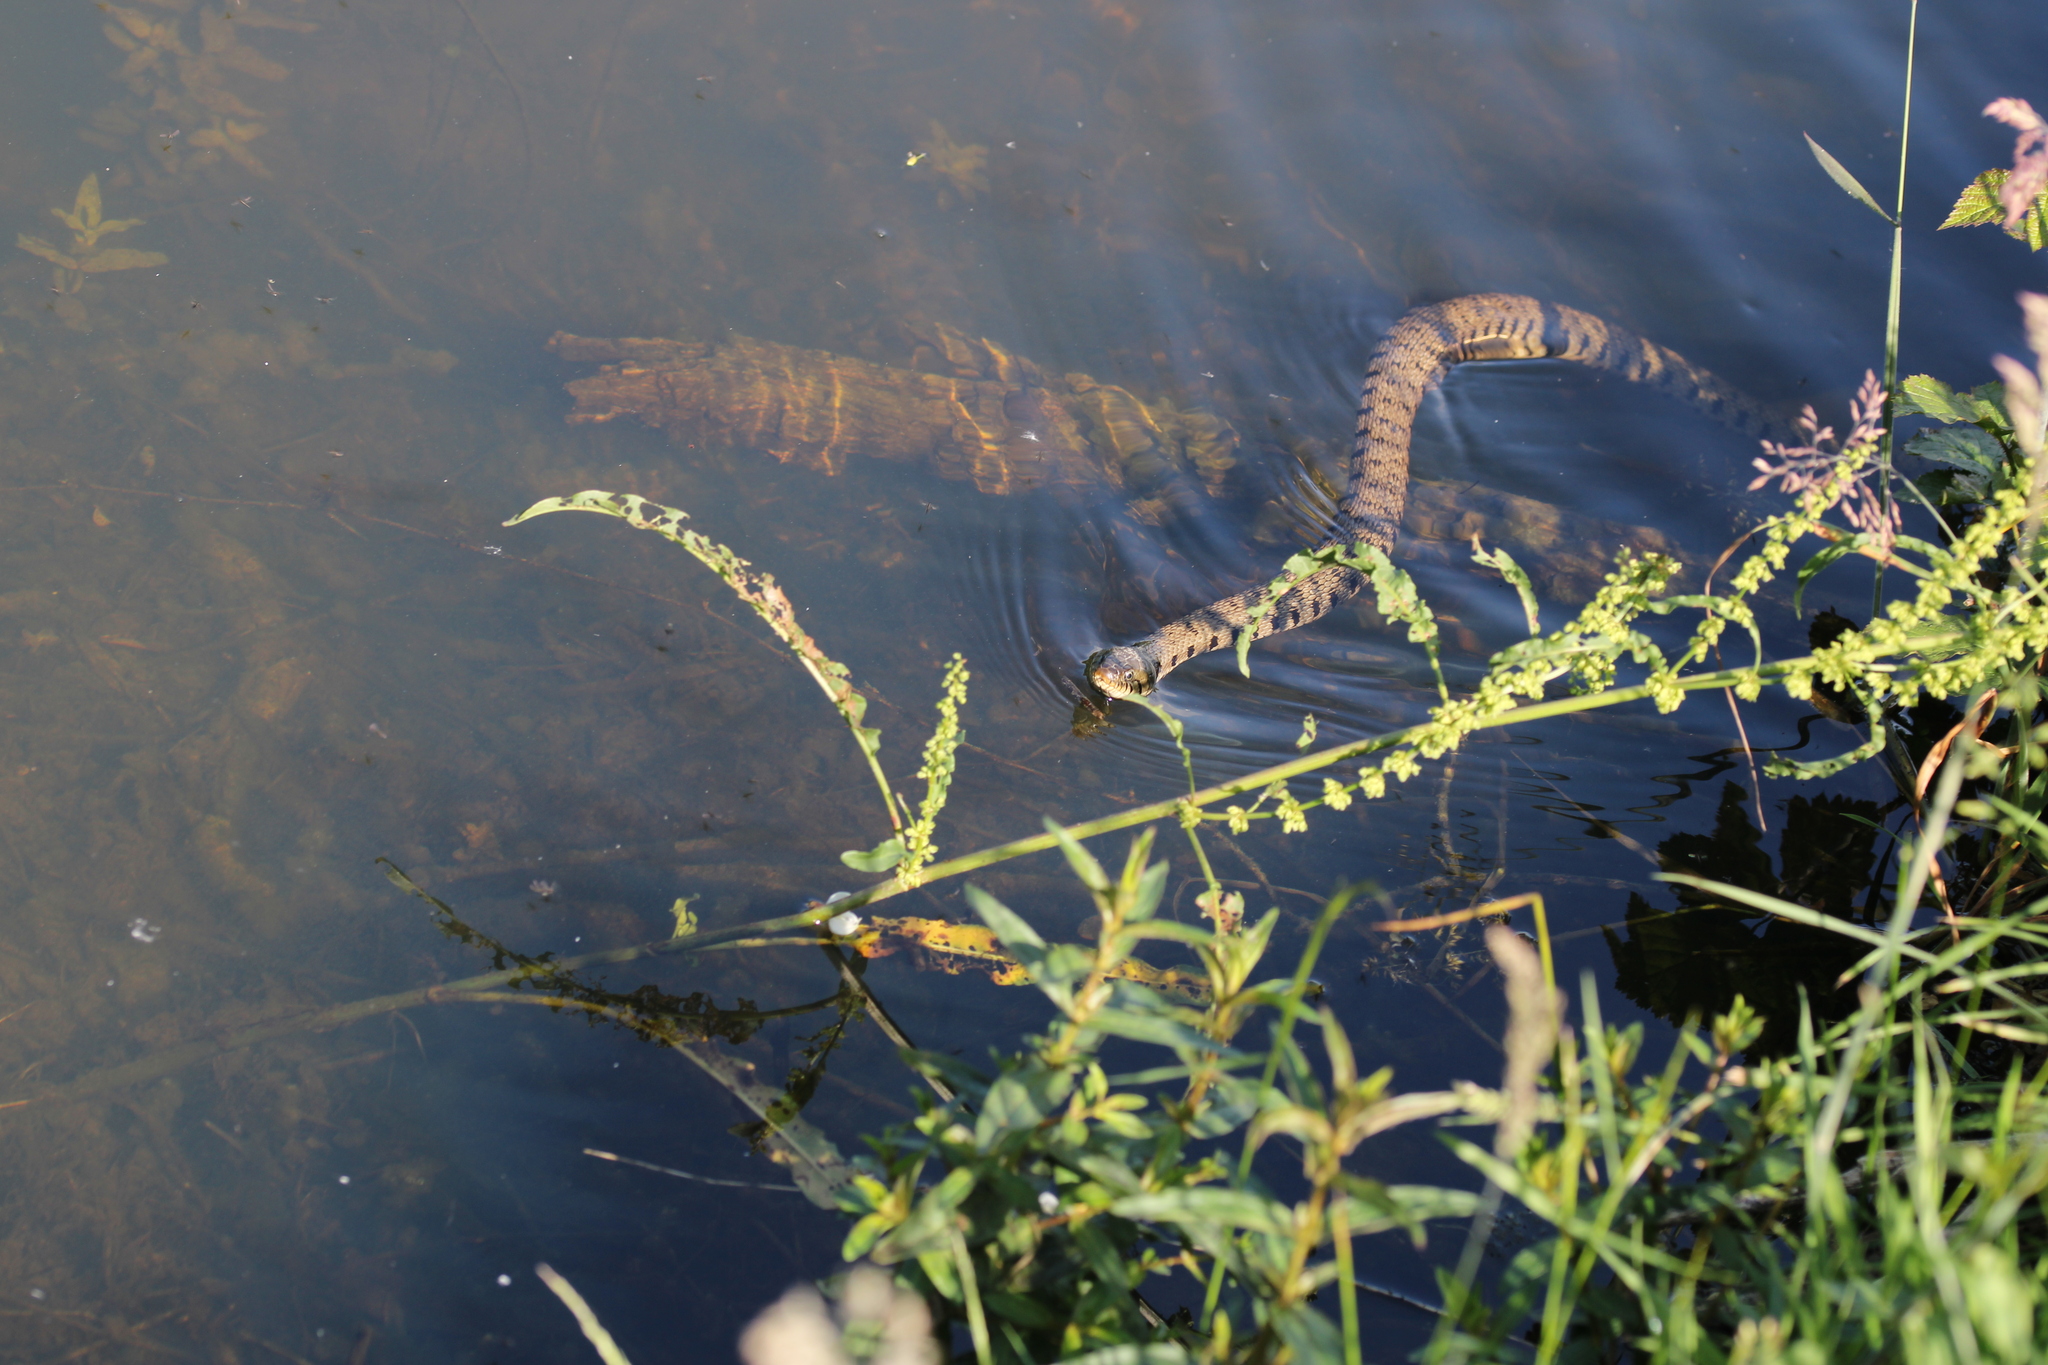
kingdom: Animalia
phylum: Chordata
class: Squamata
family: Colubridae
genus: Natrix
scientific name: Natrix helvetica
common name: Banded grass snake
